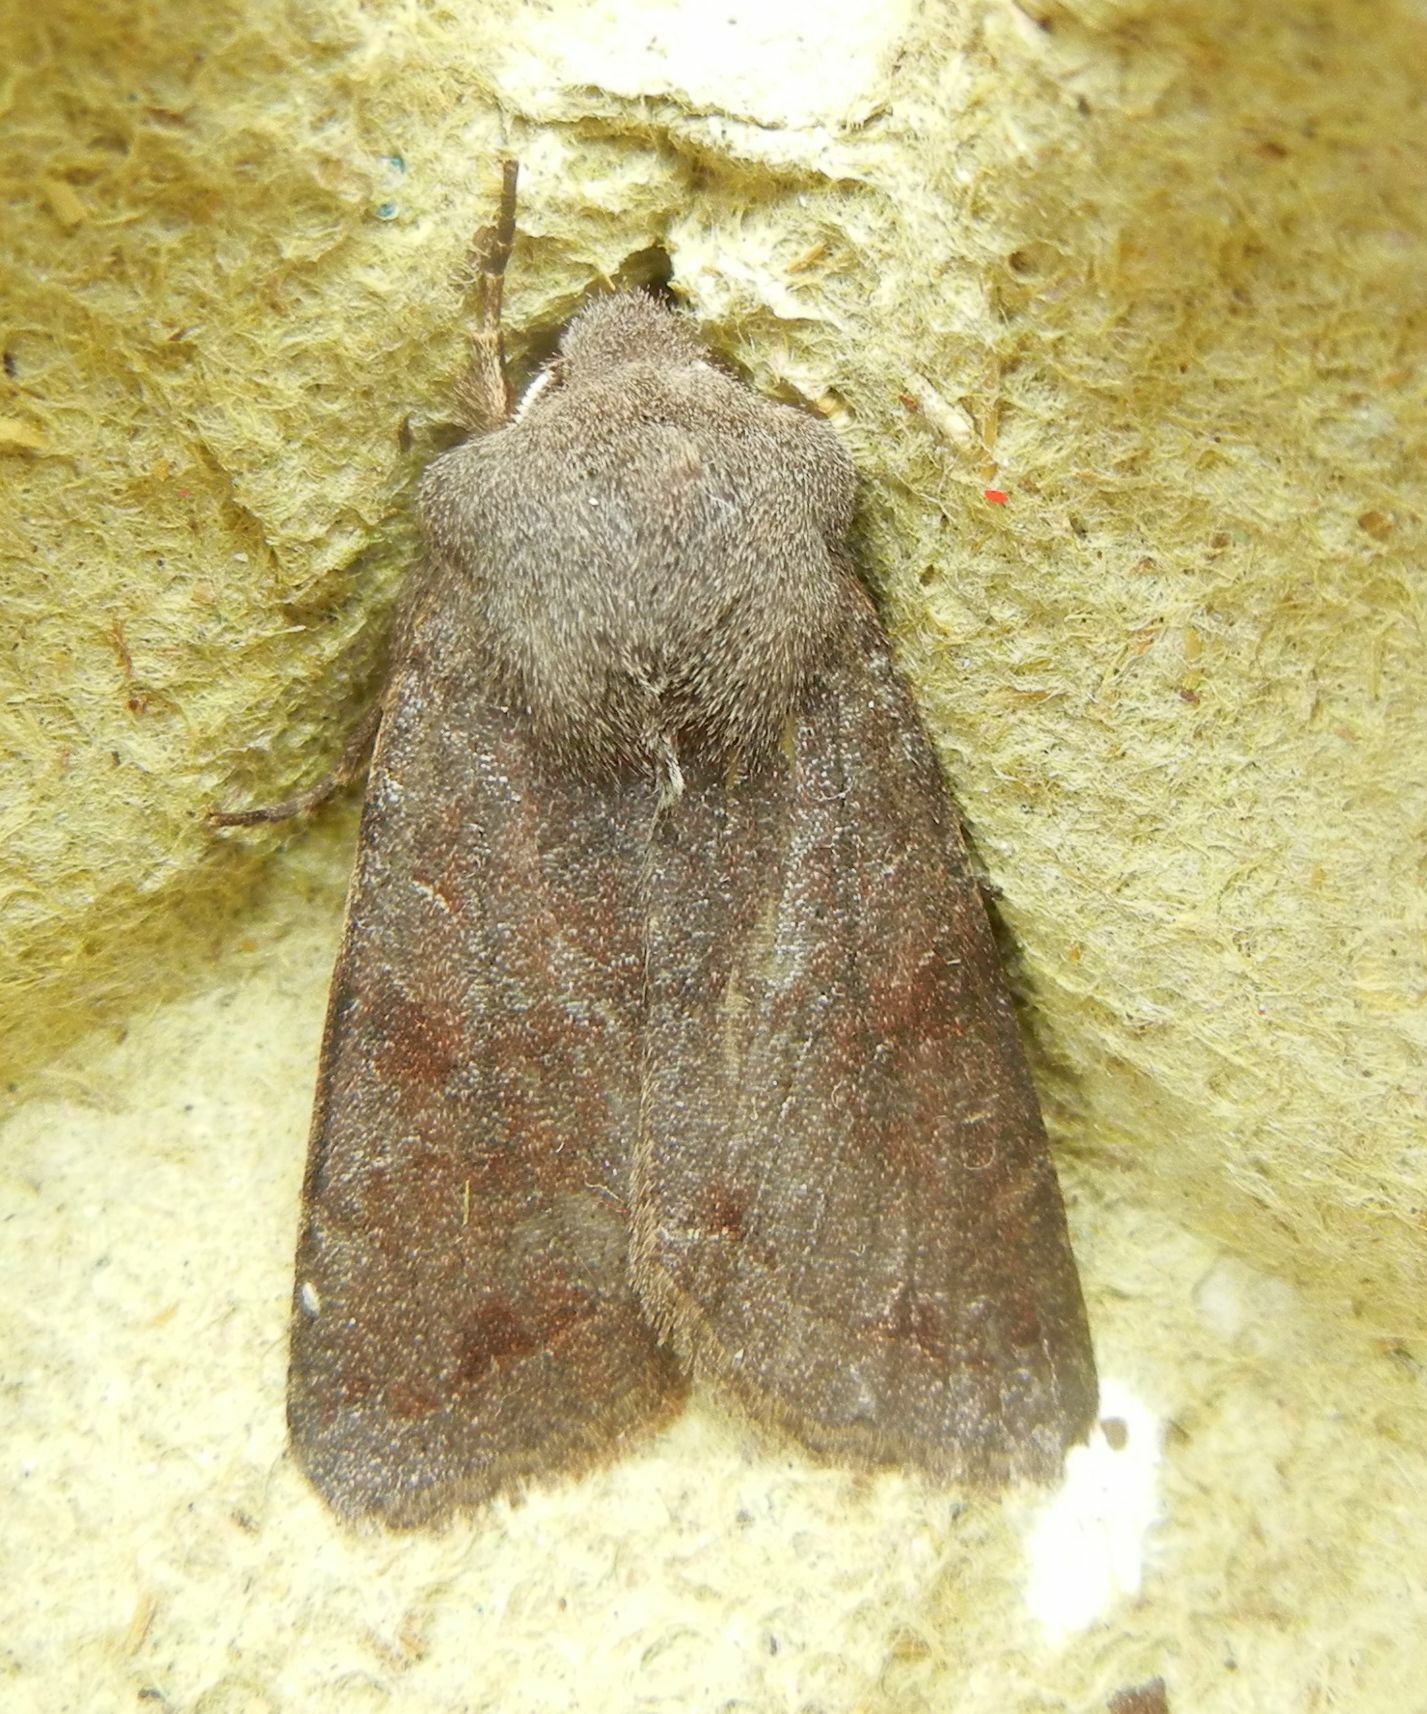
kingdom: Animalia
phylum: Arthropoda
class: Insecta
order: Lepidoptera
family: Noctuidae
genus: Orthosia
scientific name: Orthosia incerta
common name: Clouded drab
